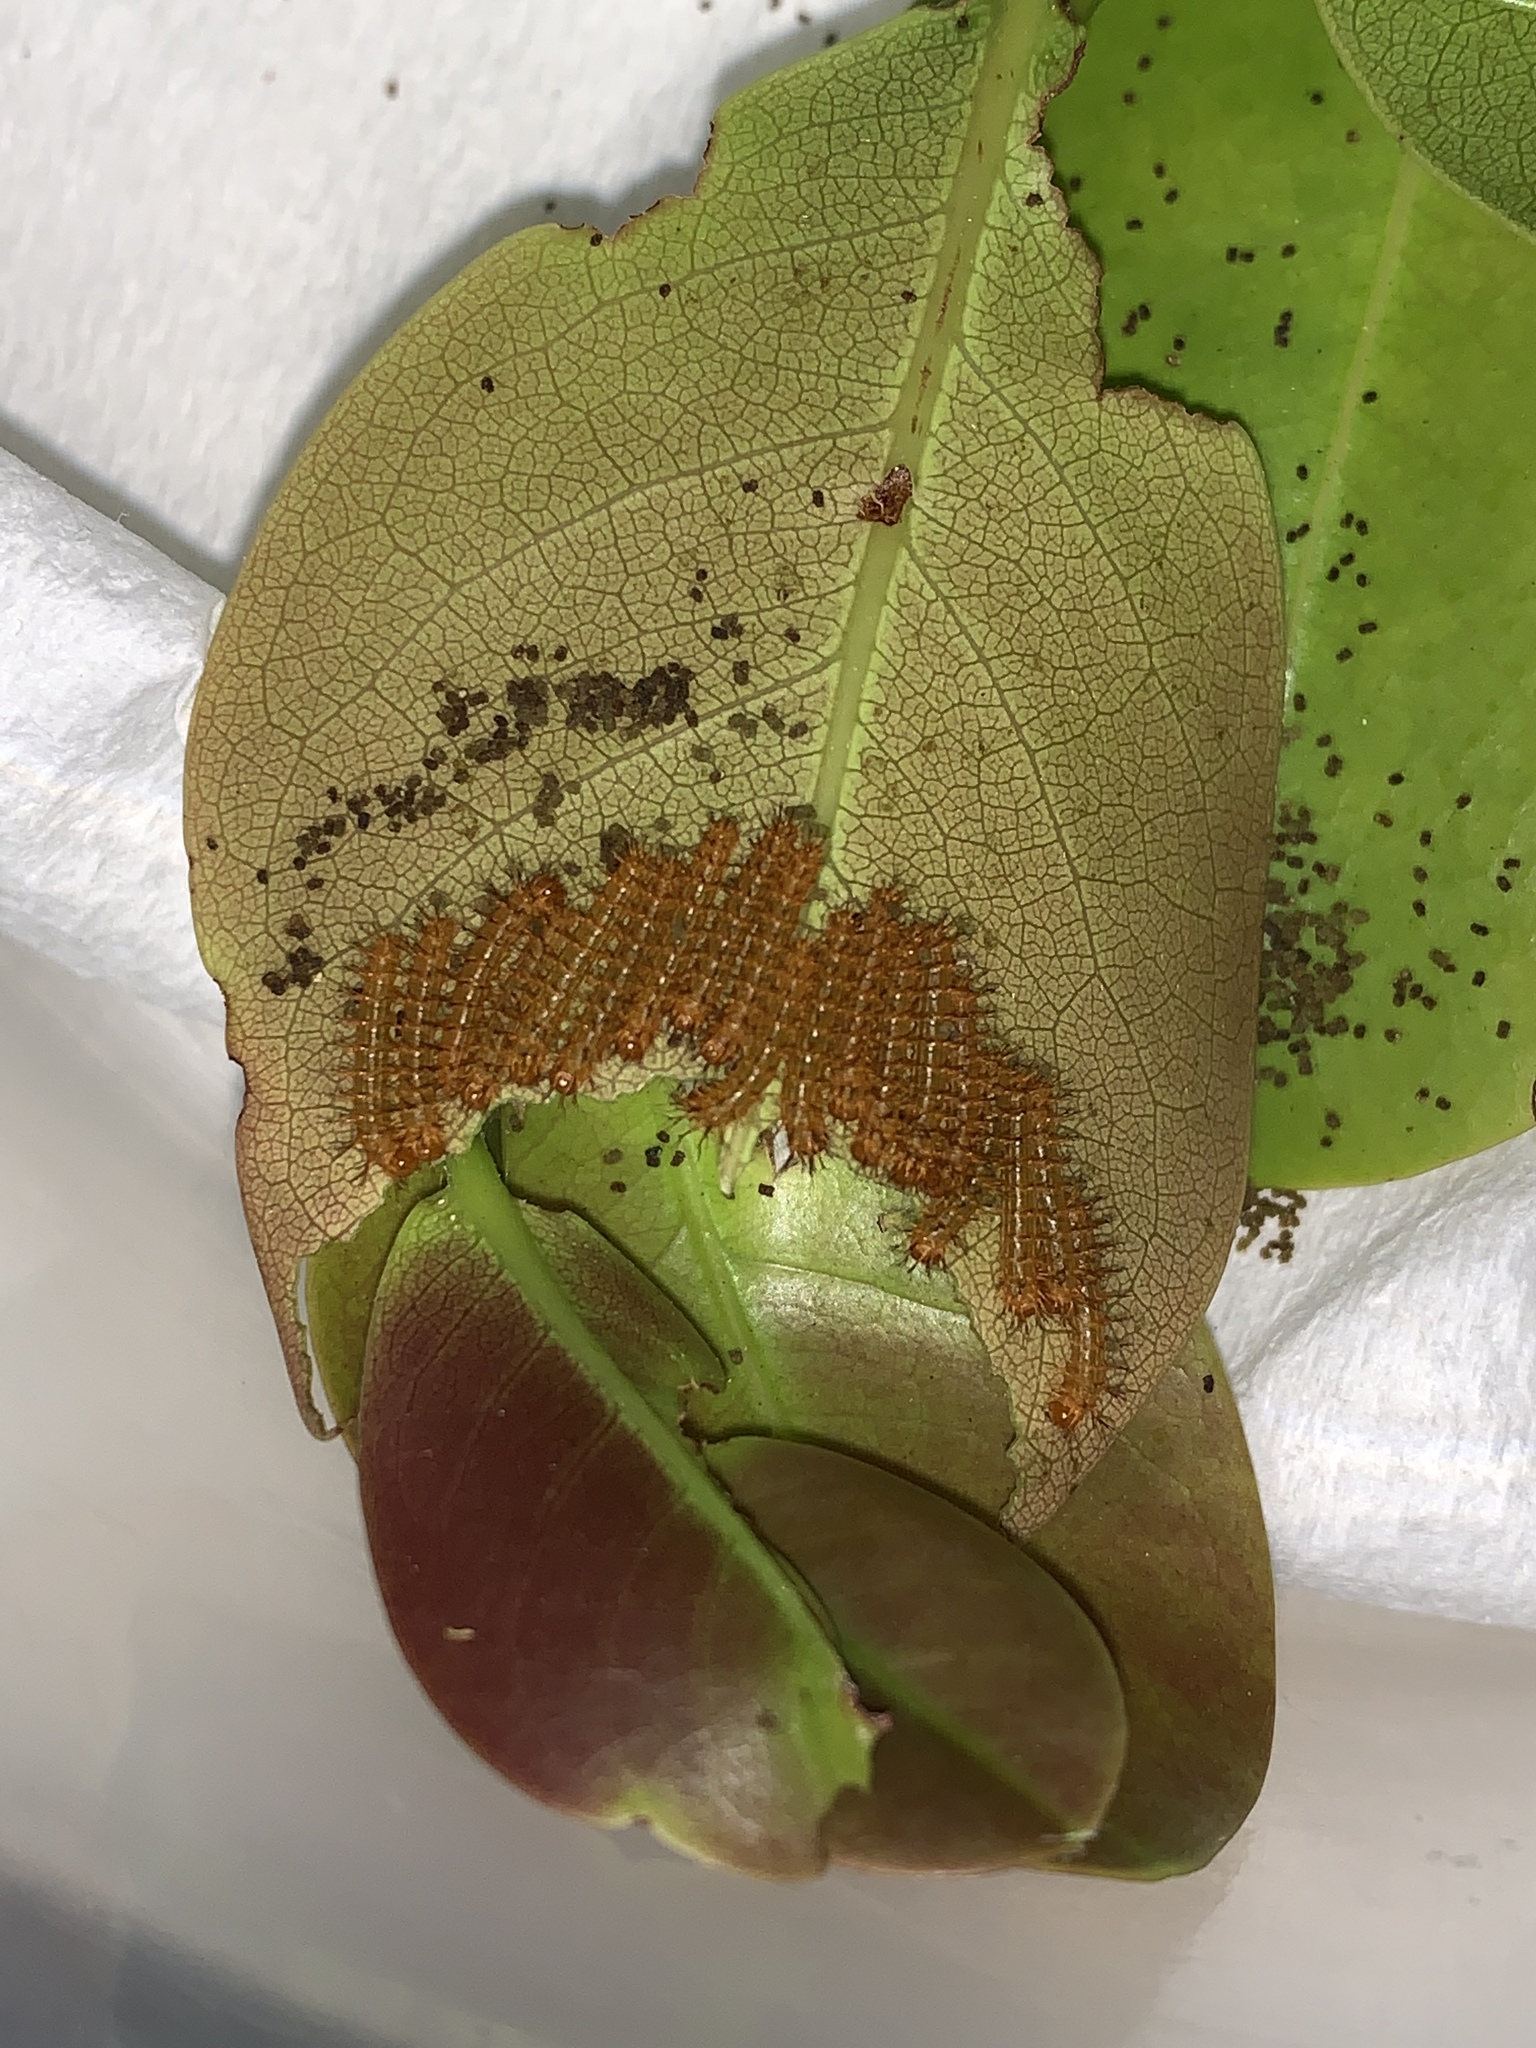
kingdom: Animalia
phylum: Arthropoda
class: Insecta
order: Lepidoptera
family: Saturniidae
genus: Automeris
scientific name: Automeris io
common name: Io moth
